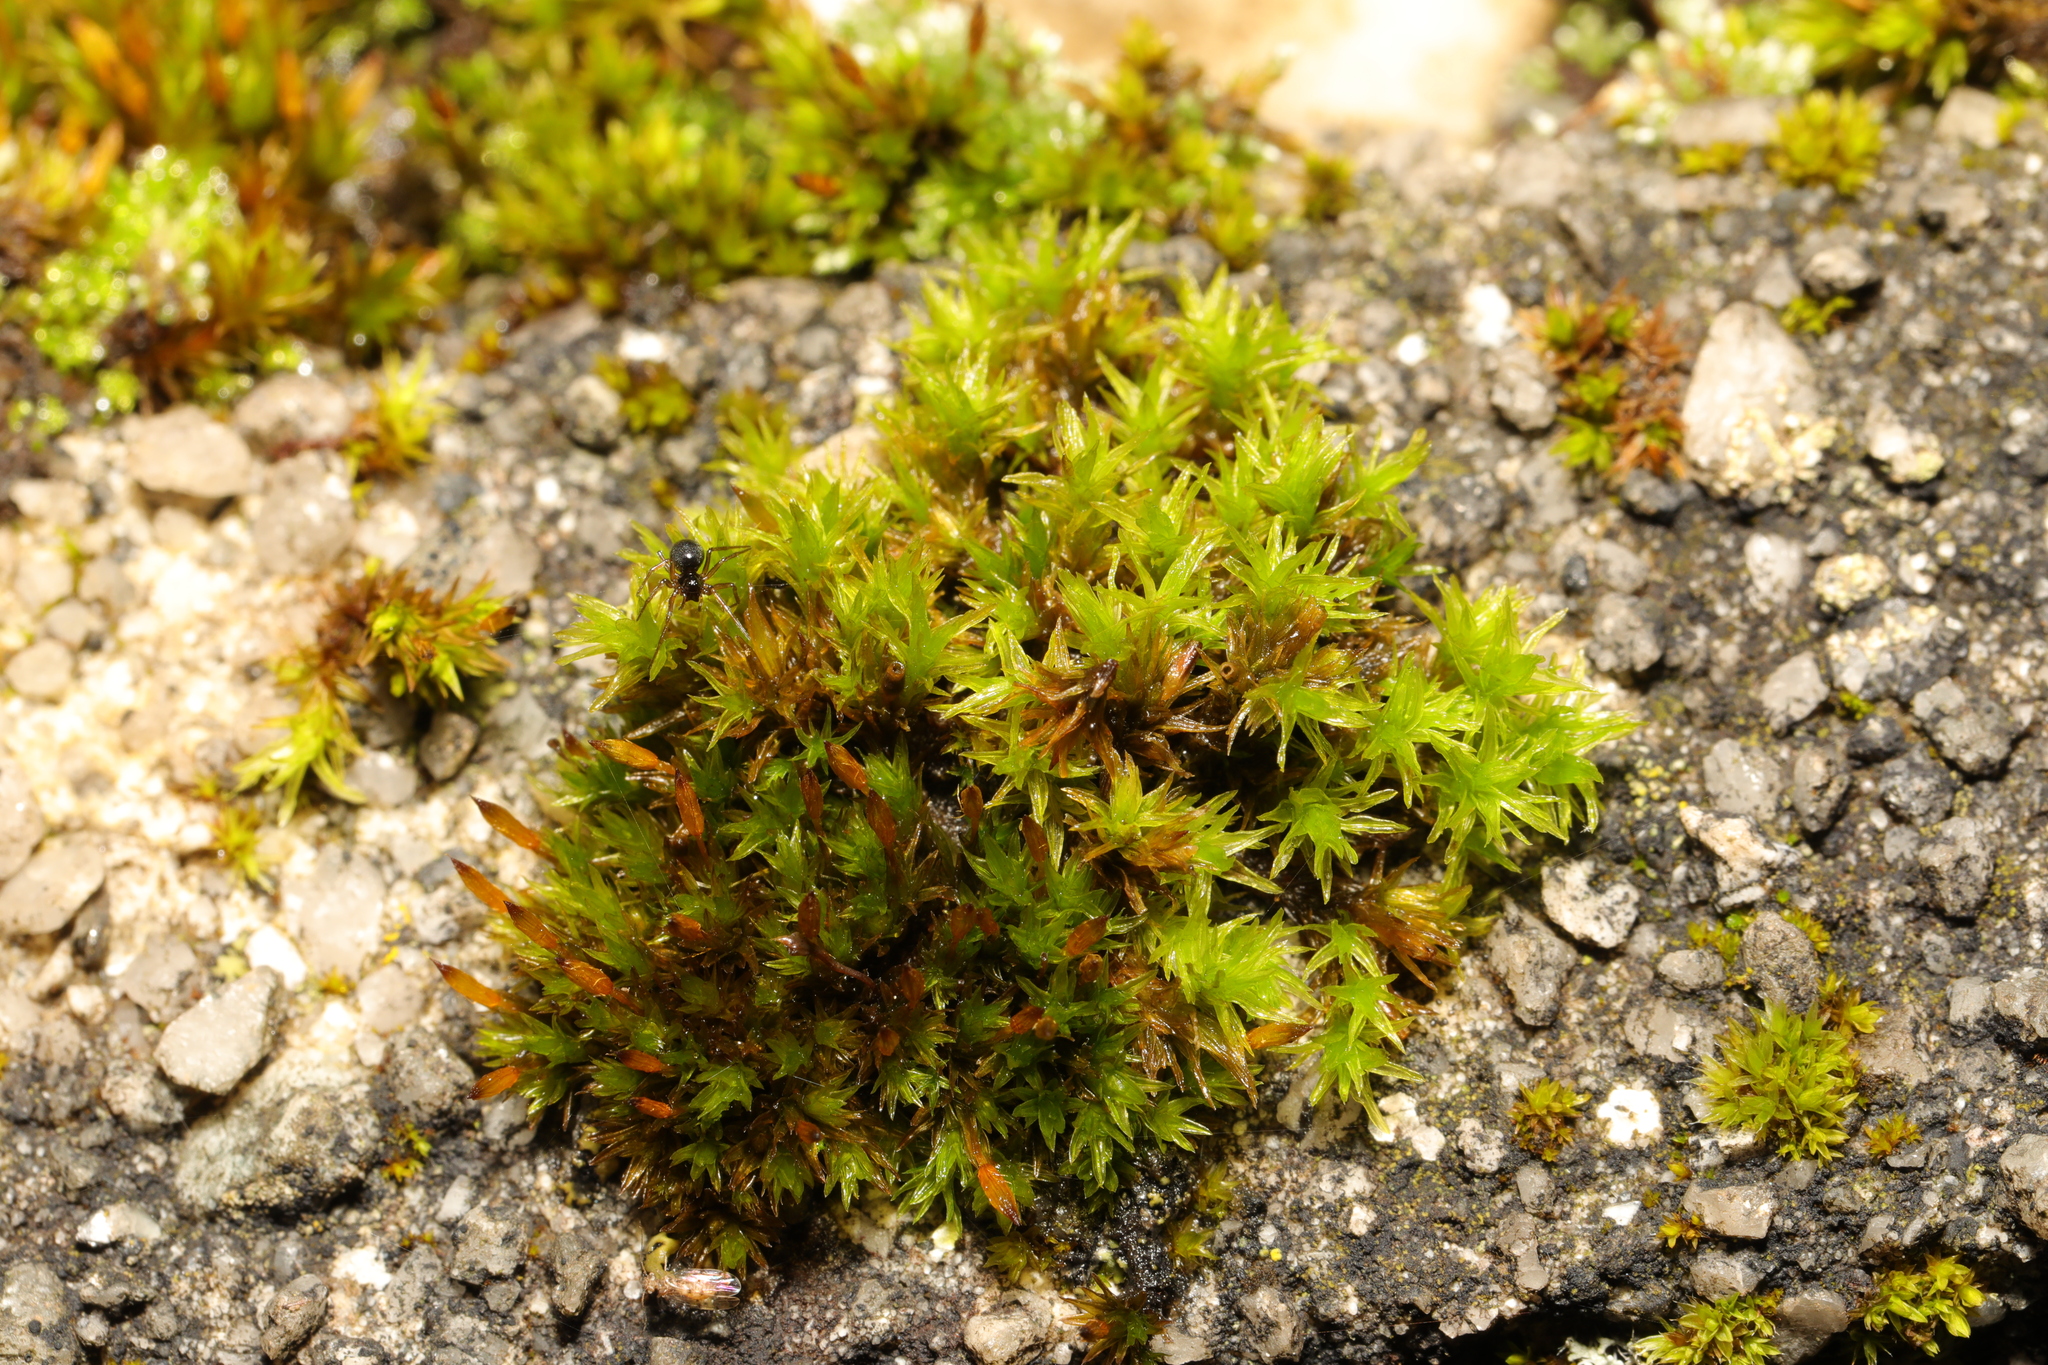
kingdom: Plantae
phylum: Bryophyta
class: Bryopsida
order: Orthotrichales
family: Orthotrichaceae
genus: Orthotrichum
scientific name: Orthotrichum anomalum
